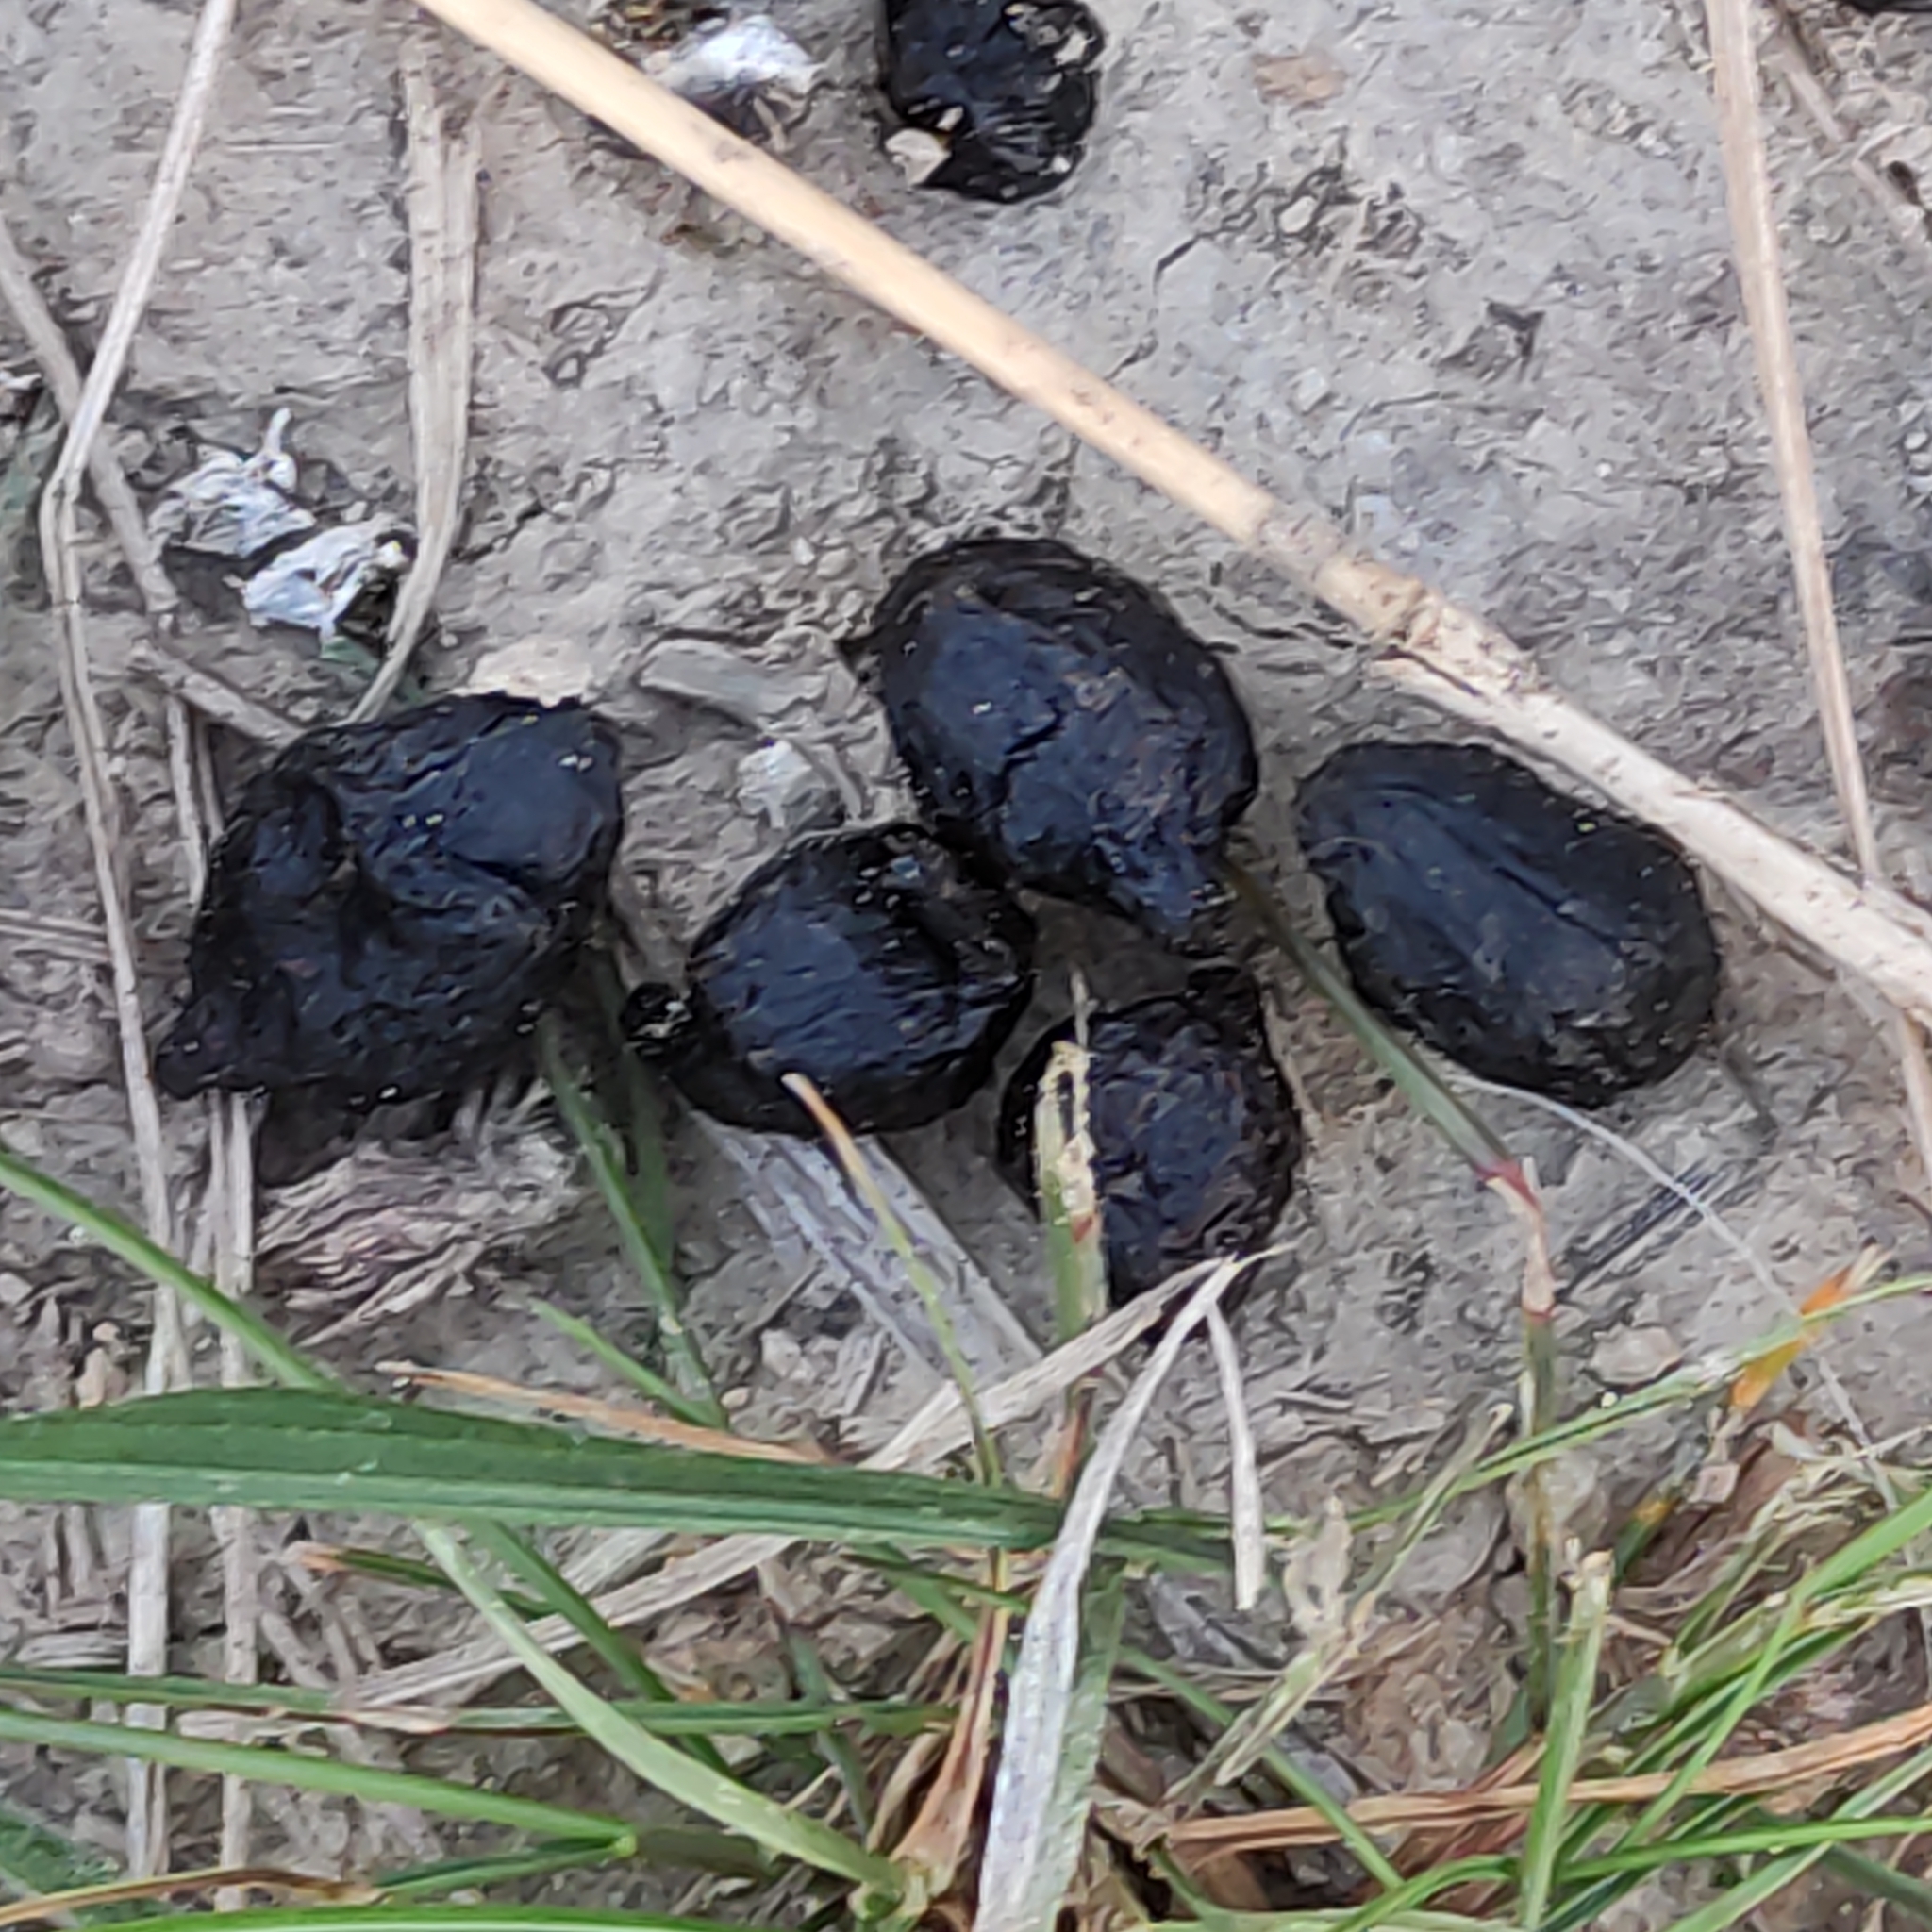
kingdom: Animalia
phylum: Chordata
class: Mammalia
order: Artiodactyla
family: Bovidae
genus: Capra
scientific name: Capra hircus
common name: Domestic goat
